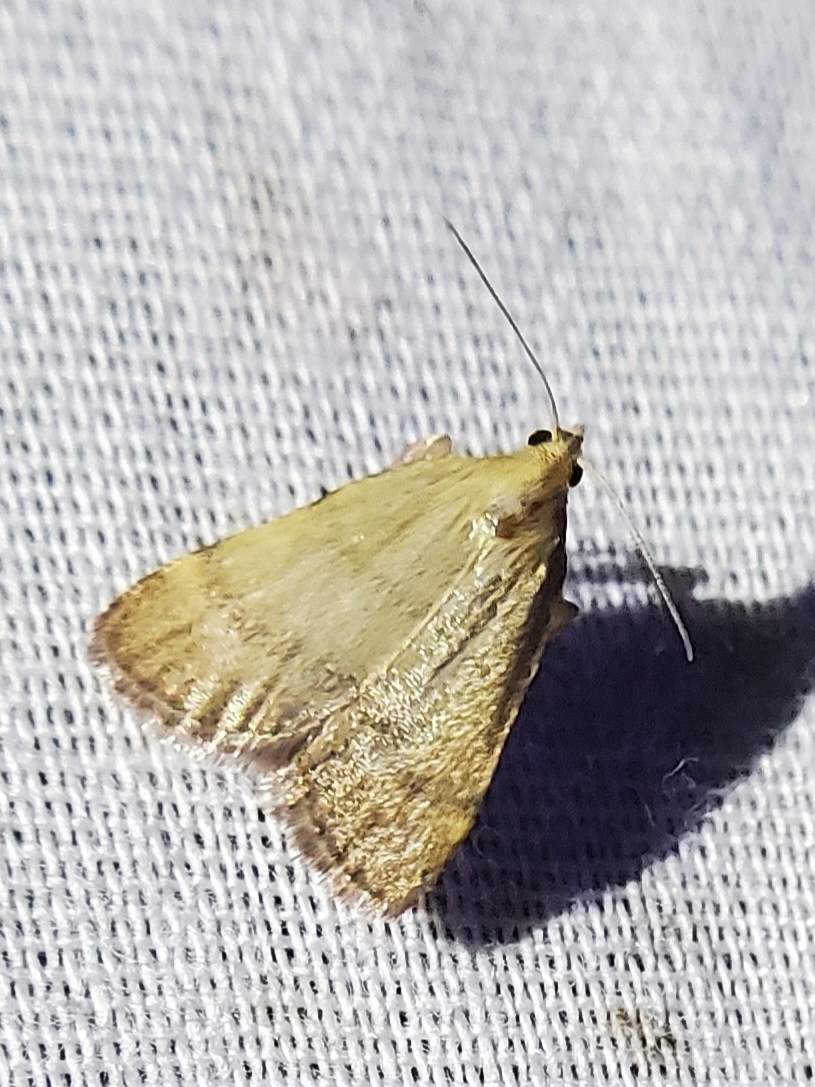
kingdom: Animalia
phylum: Arthropoda
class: Insecta
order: Lepidoptera
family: Pyralidae
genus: Condylolomia
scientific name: Condylolomia participialis
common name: Drab condylolomia moth
